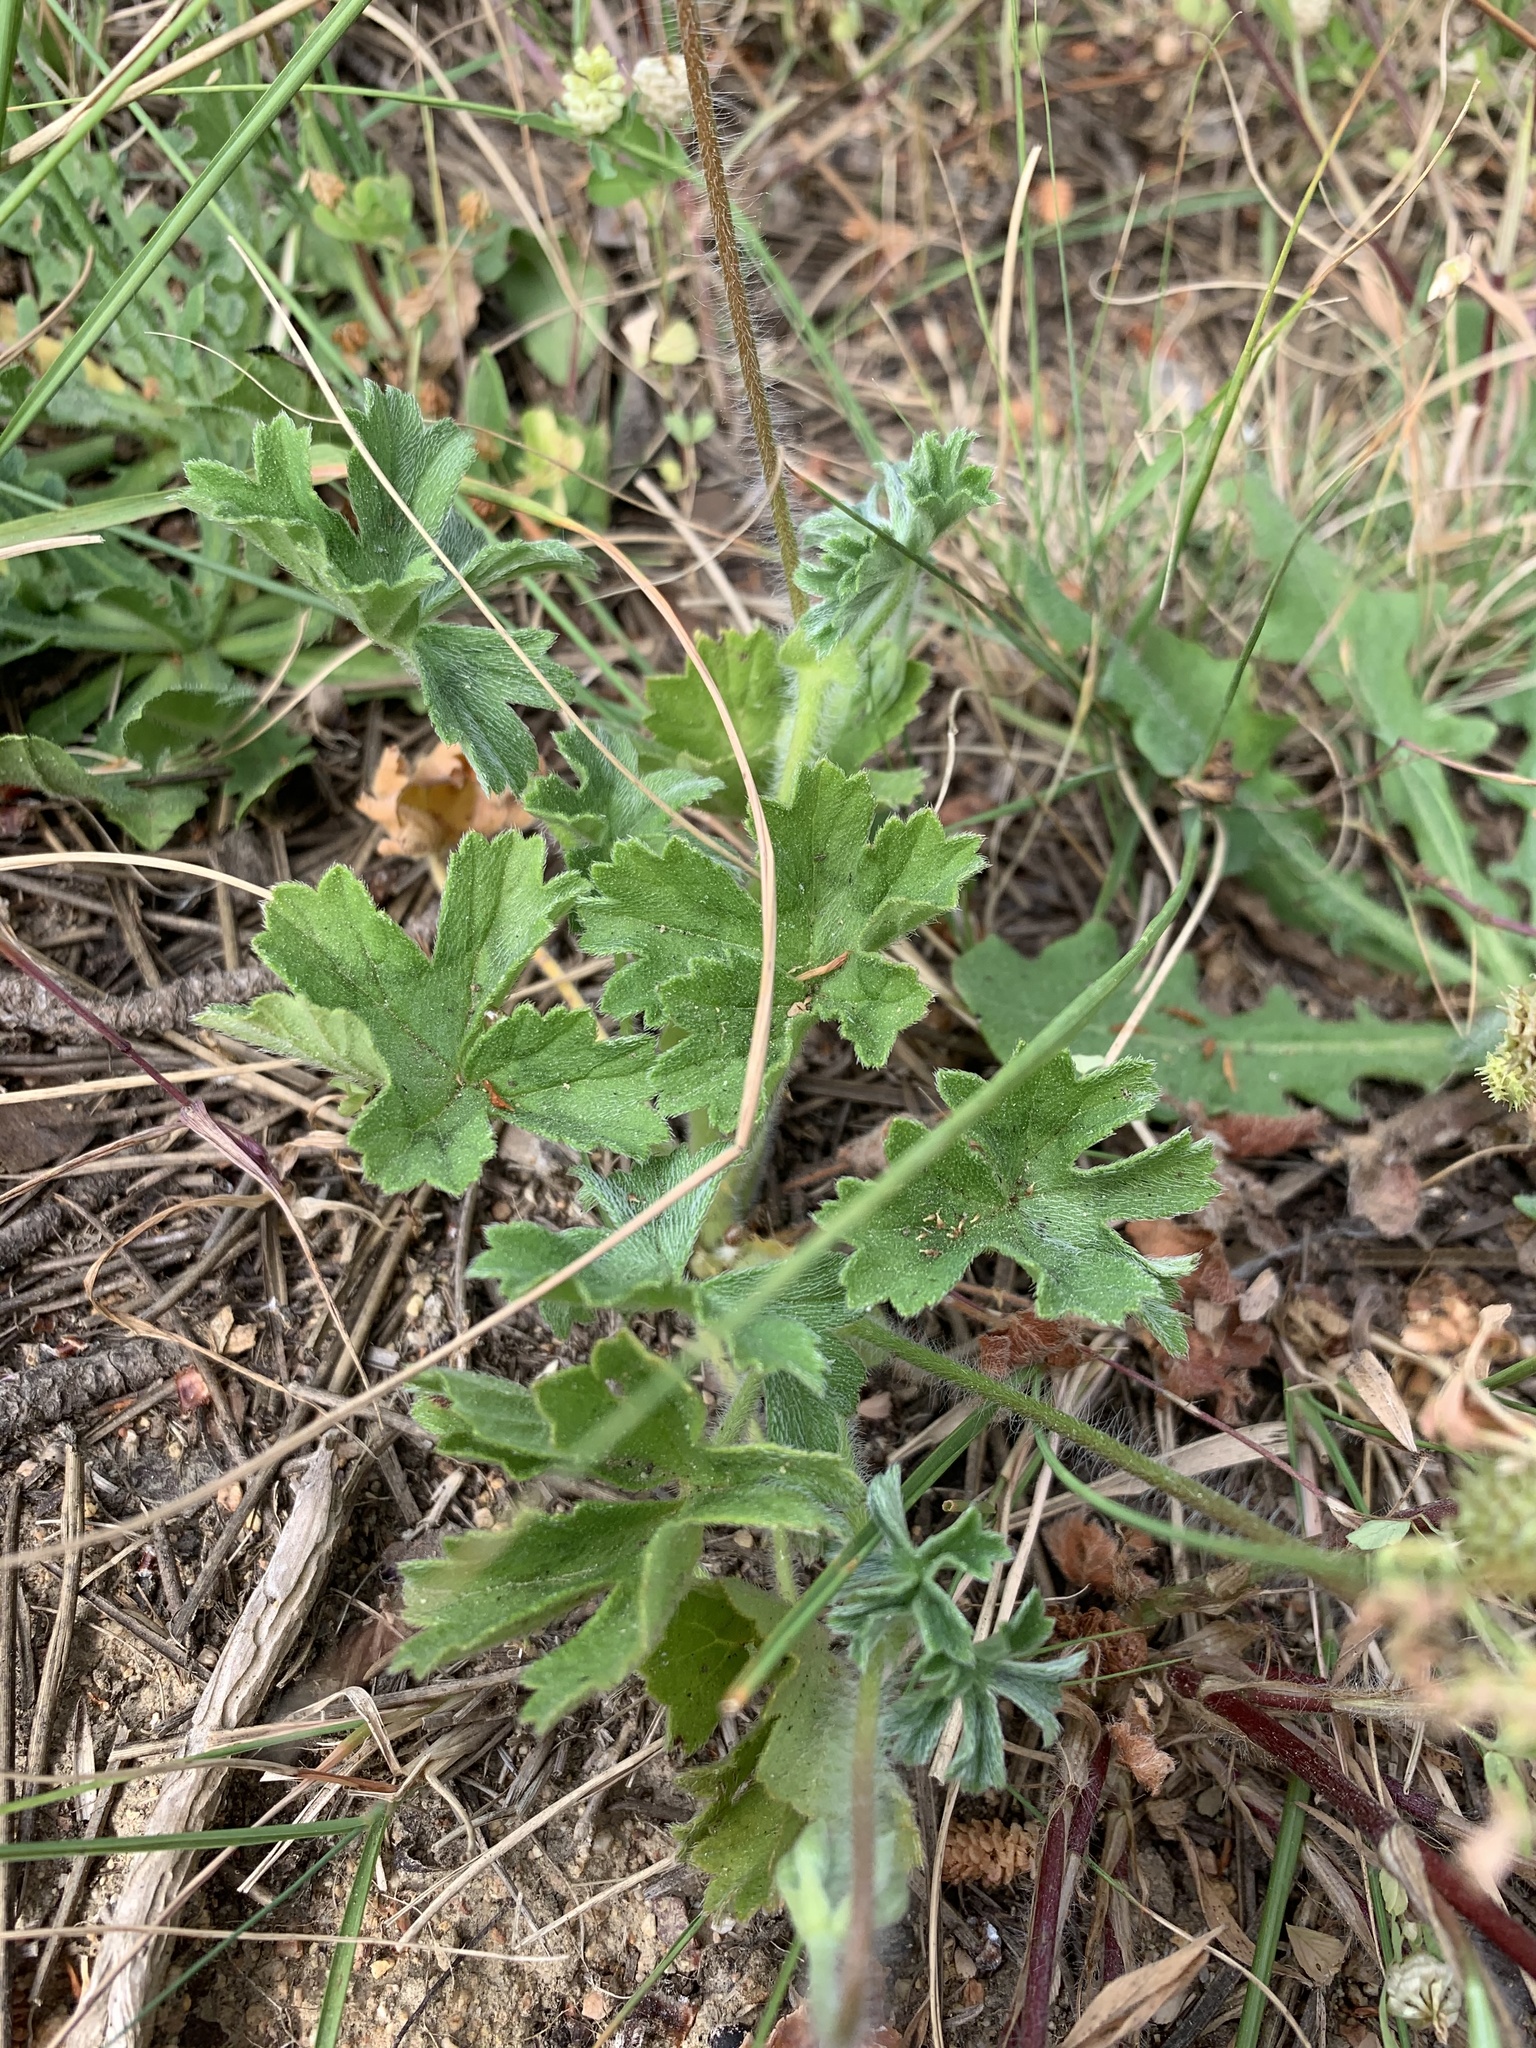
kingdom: Plantae
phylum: Tracheophyta
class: Magnoliopsida
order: Geraniales
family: Geraniaceae
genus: Pelargonium
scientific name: Pelargonium alchemilloides
